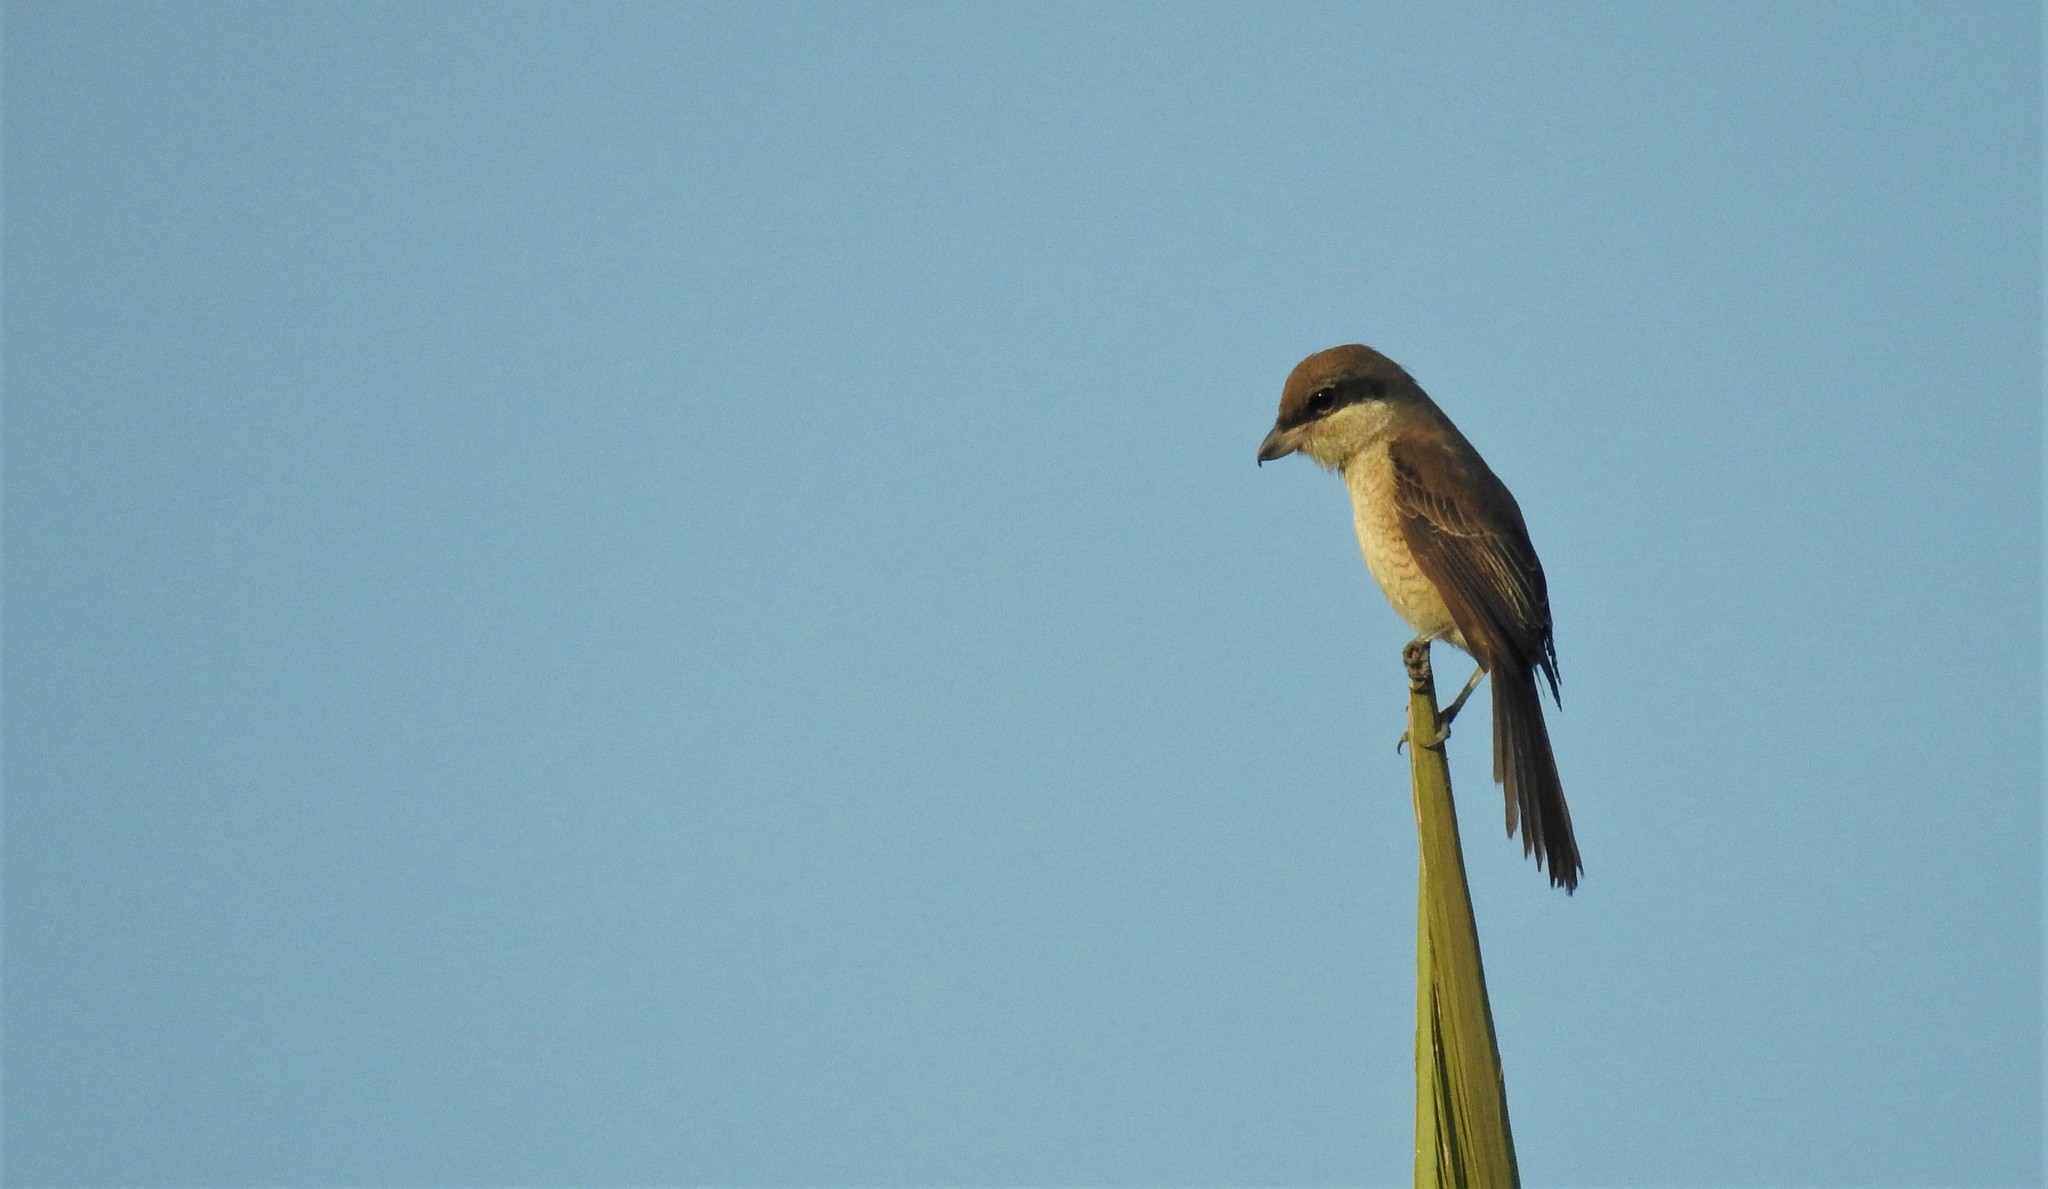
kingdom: Animalia
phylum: Chordata
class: Aves
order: Passeriformes
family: Laniidae
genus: Lanius
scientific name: Lanius cristatus
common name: Brown shrike
